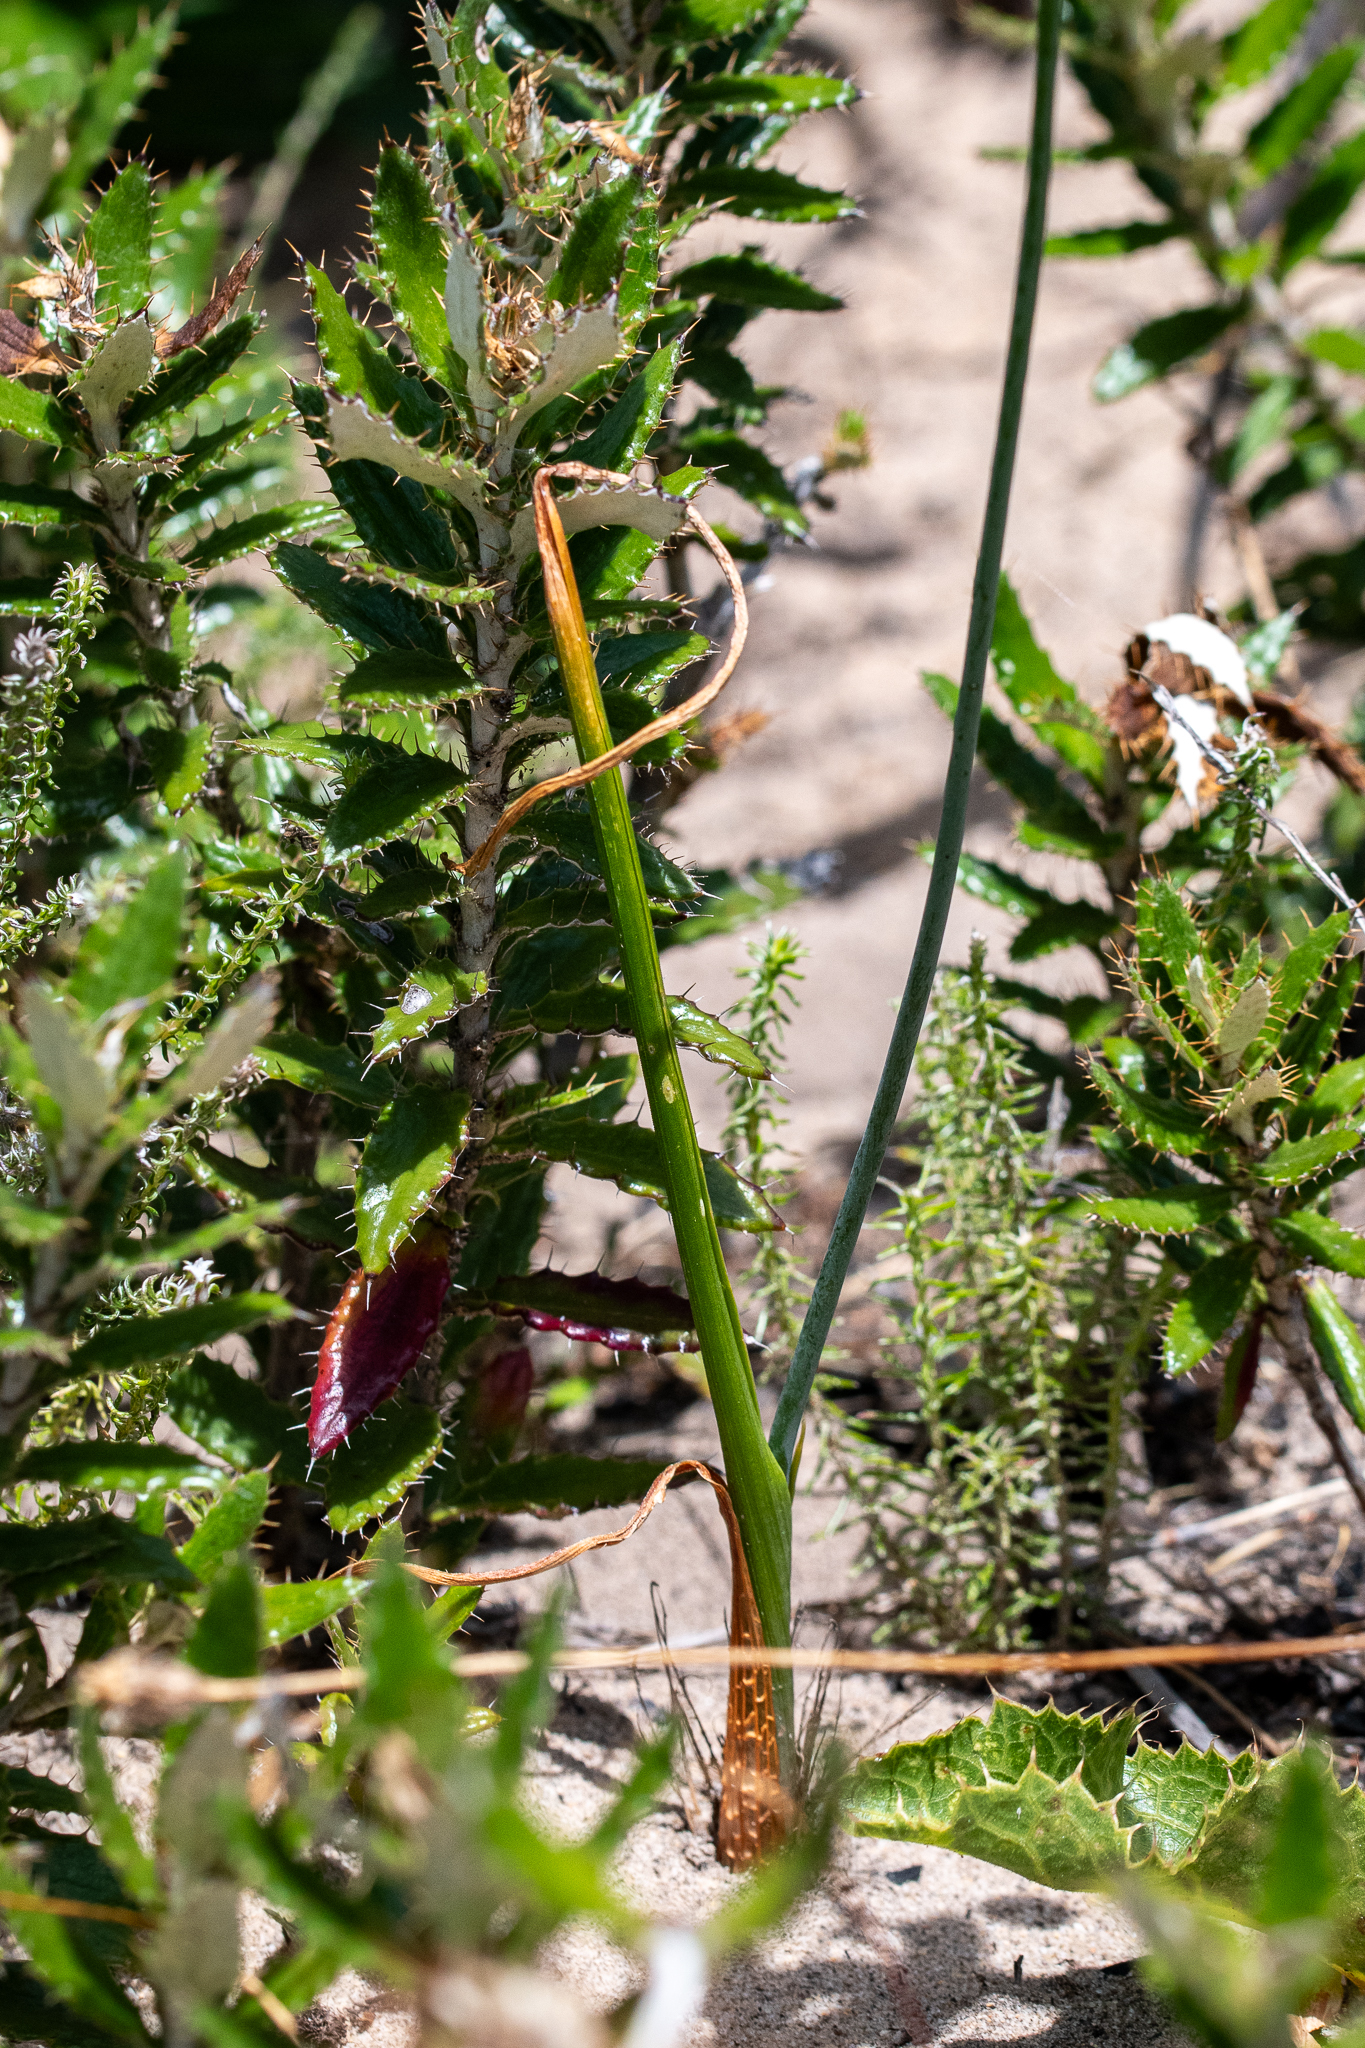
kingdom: Plantae
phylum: Tracheophyta
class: Liliopsida
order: Asparagales
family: Asparagaceae
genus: Albuca
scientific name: Albuca cooperi
